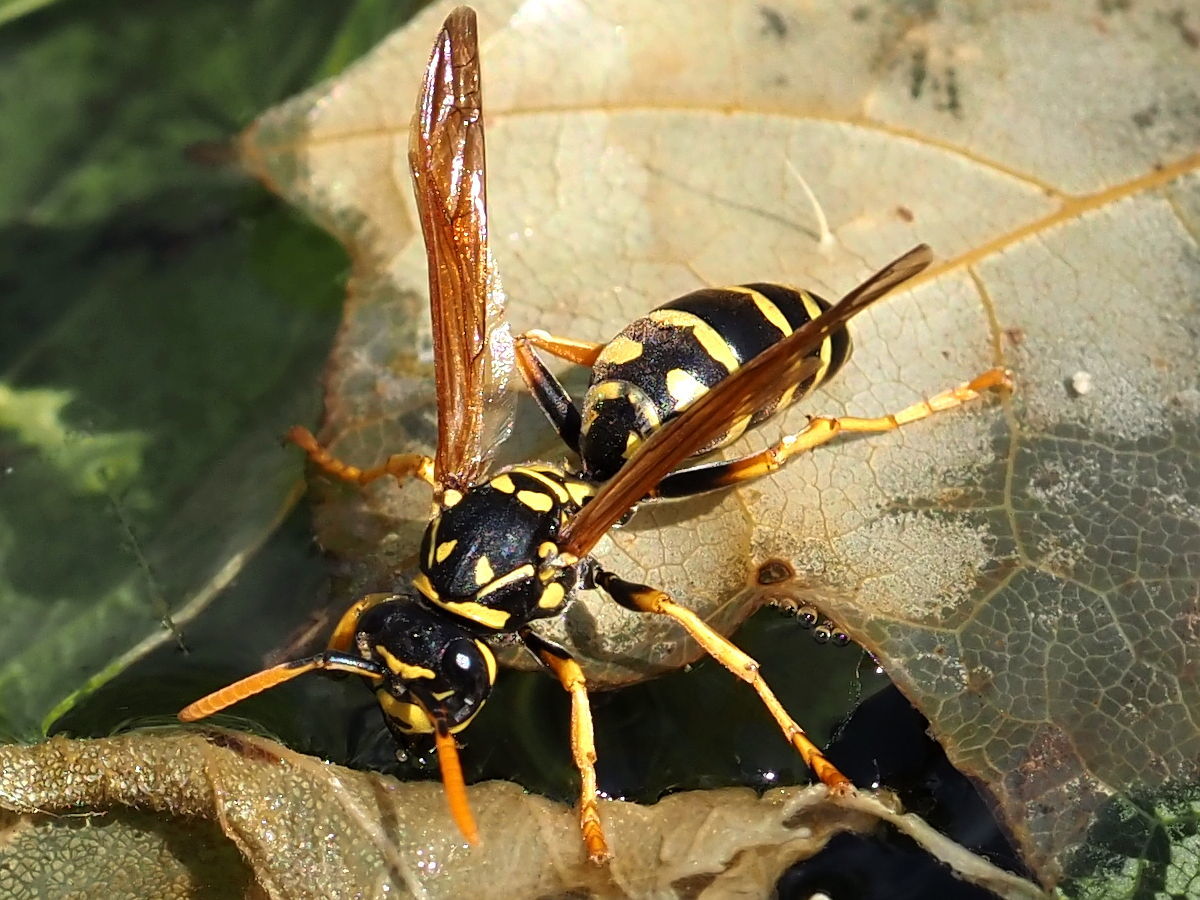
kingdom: Animalia
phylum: Arthropoda
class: Insecta
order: Hymenoptera
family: Eumenidae
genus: Polistes
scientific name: Polistes dominula
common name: Paper wasp
